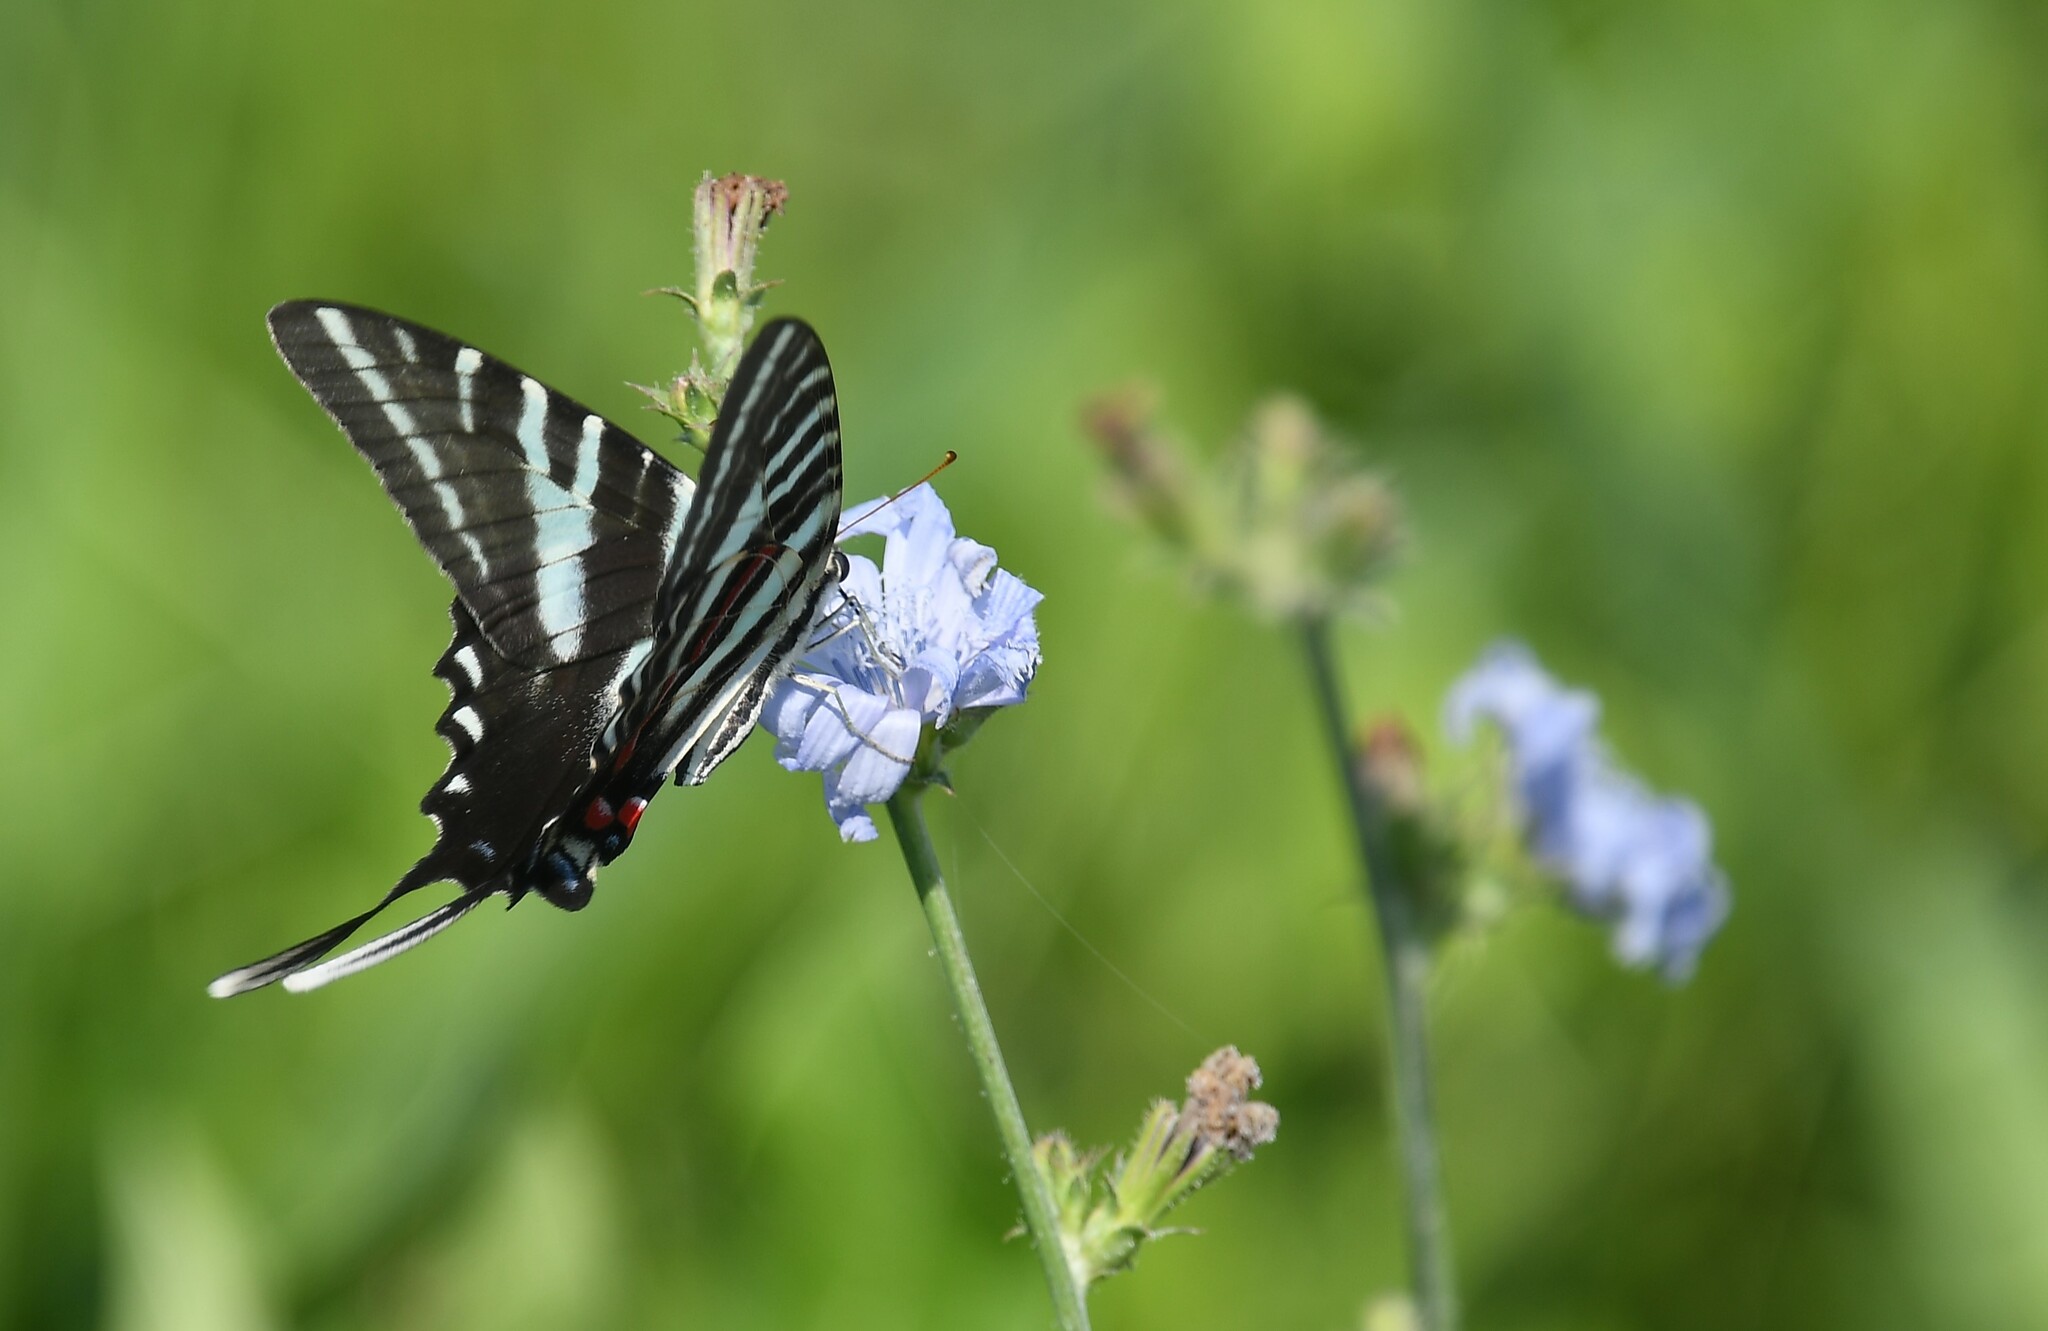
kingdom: Animalia
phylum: Arthropoda
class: Insecta
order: Lepidoptera
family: Papilionidae
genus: Protographium
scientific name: Protographium marcellus
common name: Zebra swallowtail
